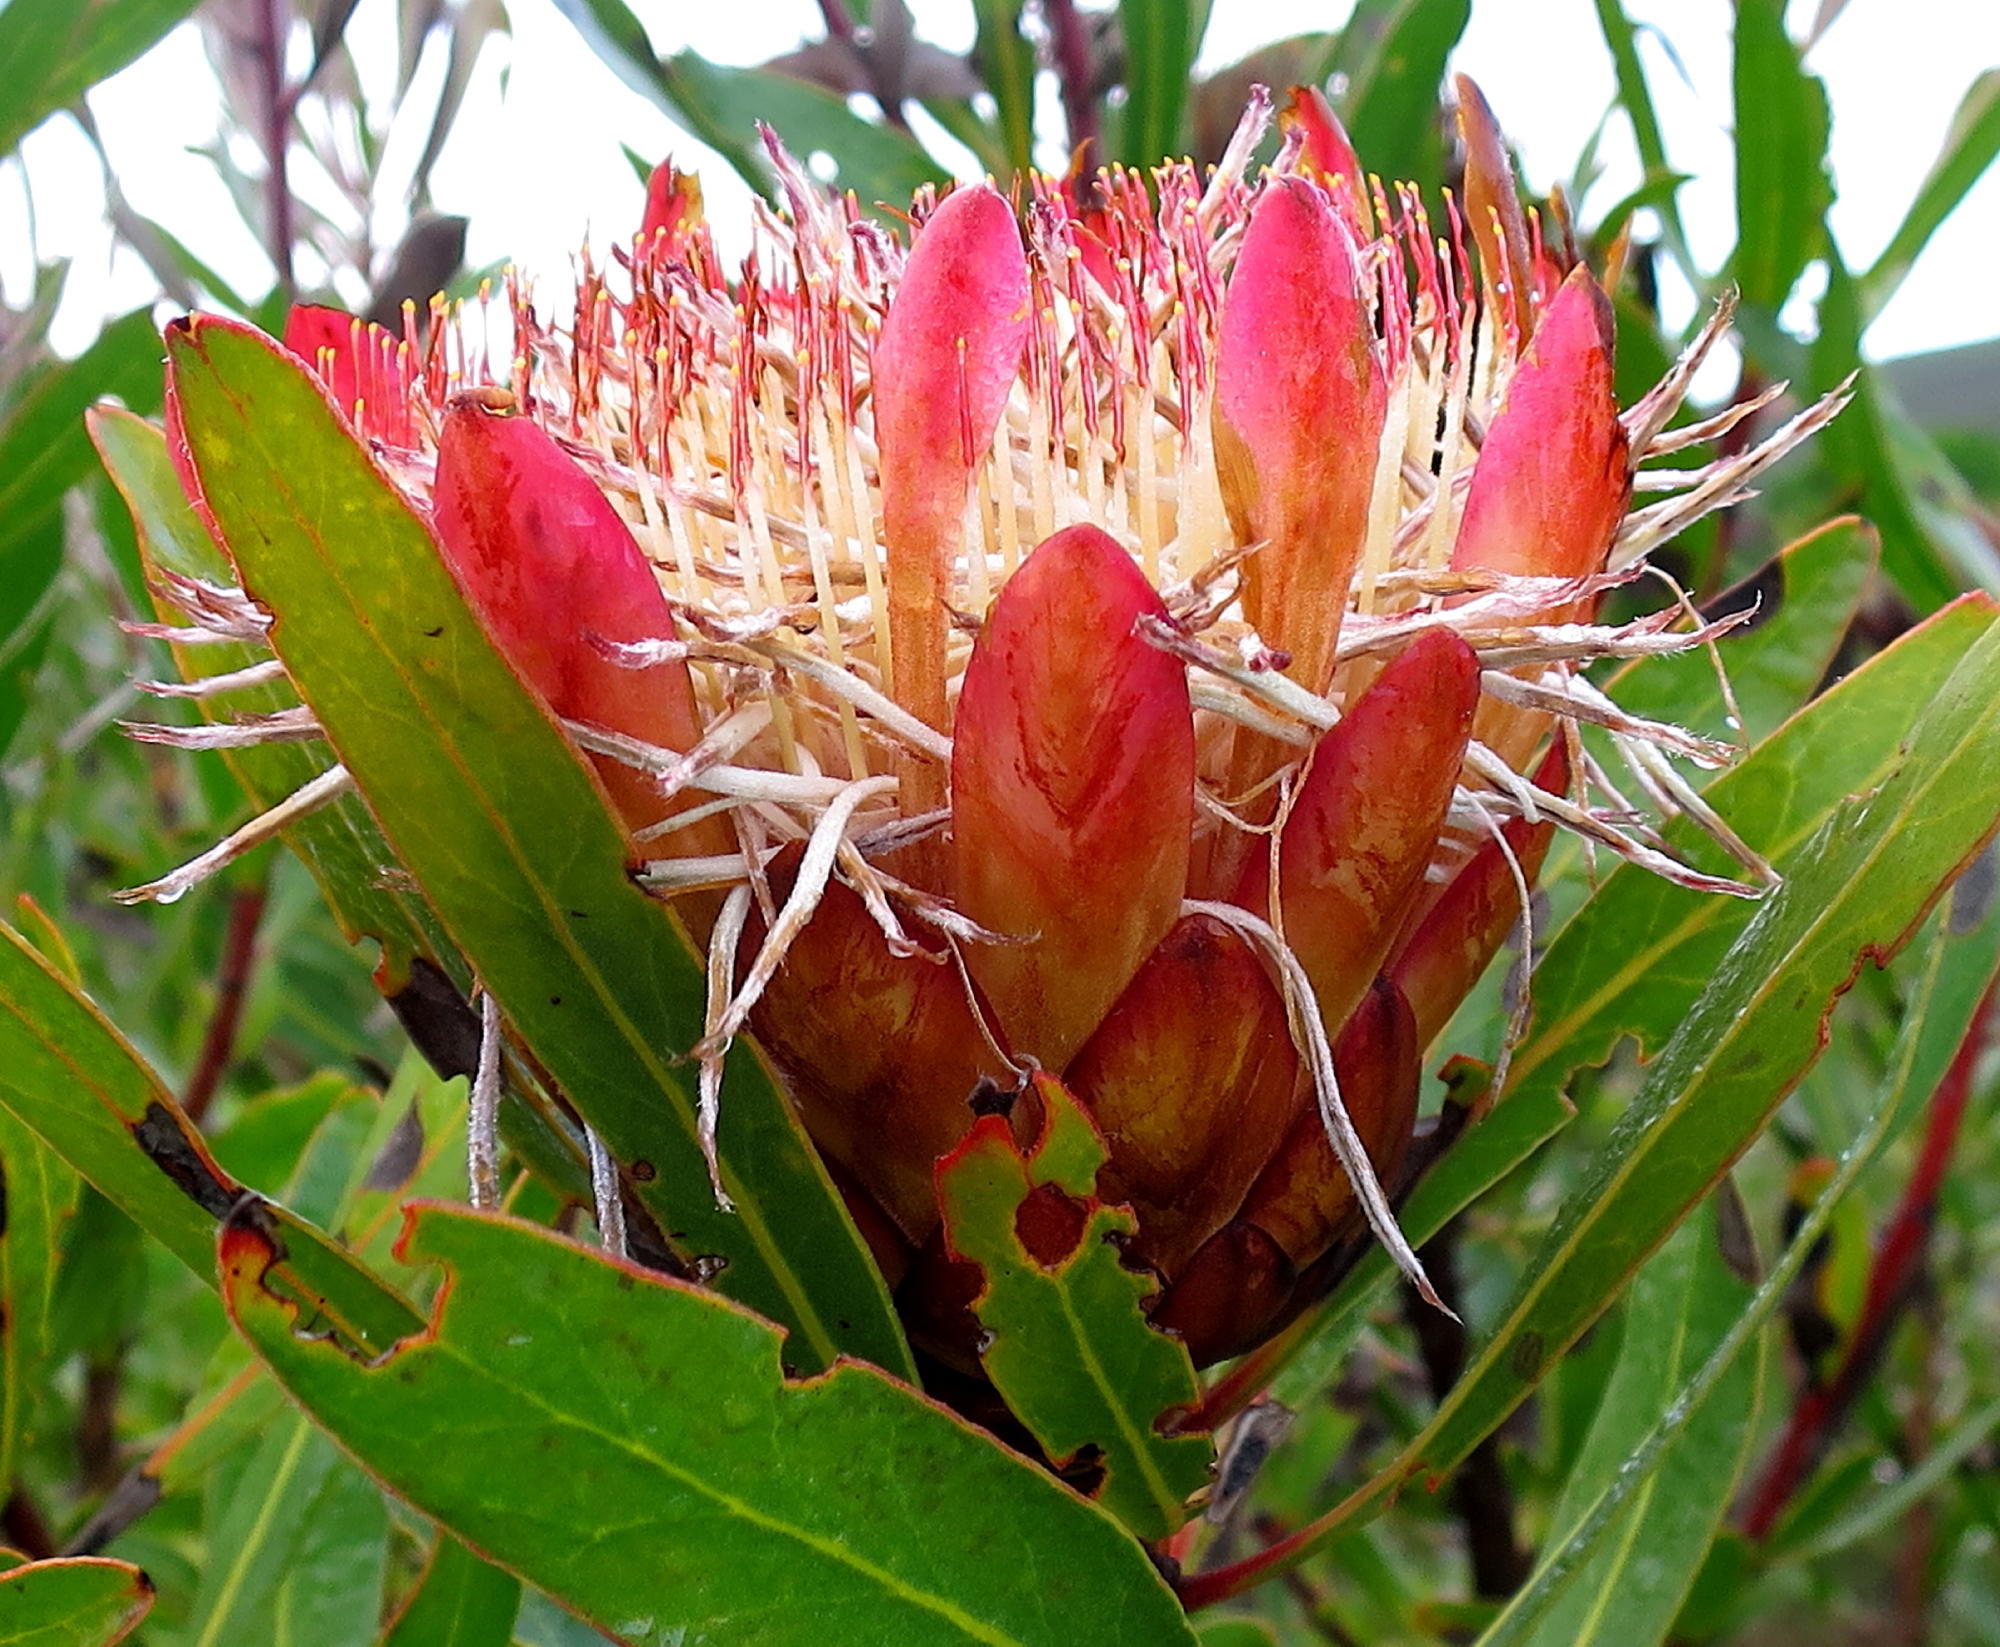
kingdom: Plantae
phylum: Tracheophyta
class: Magnoliopsida
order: Proteales
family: Proteaceae
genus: Protea
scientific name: Protea susannae
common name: Foetid-leaf sugarbush
